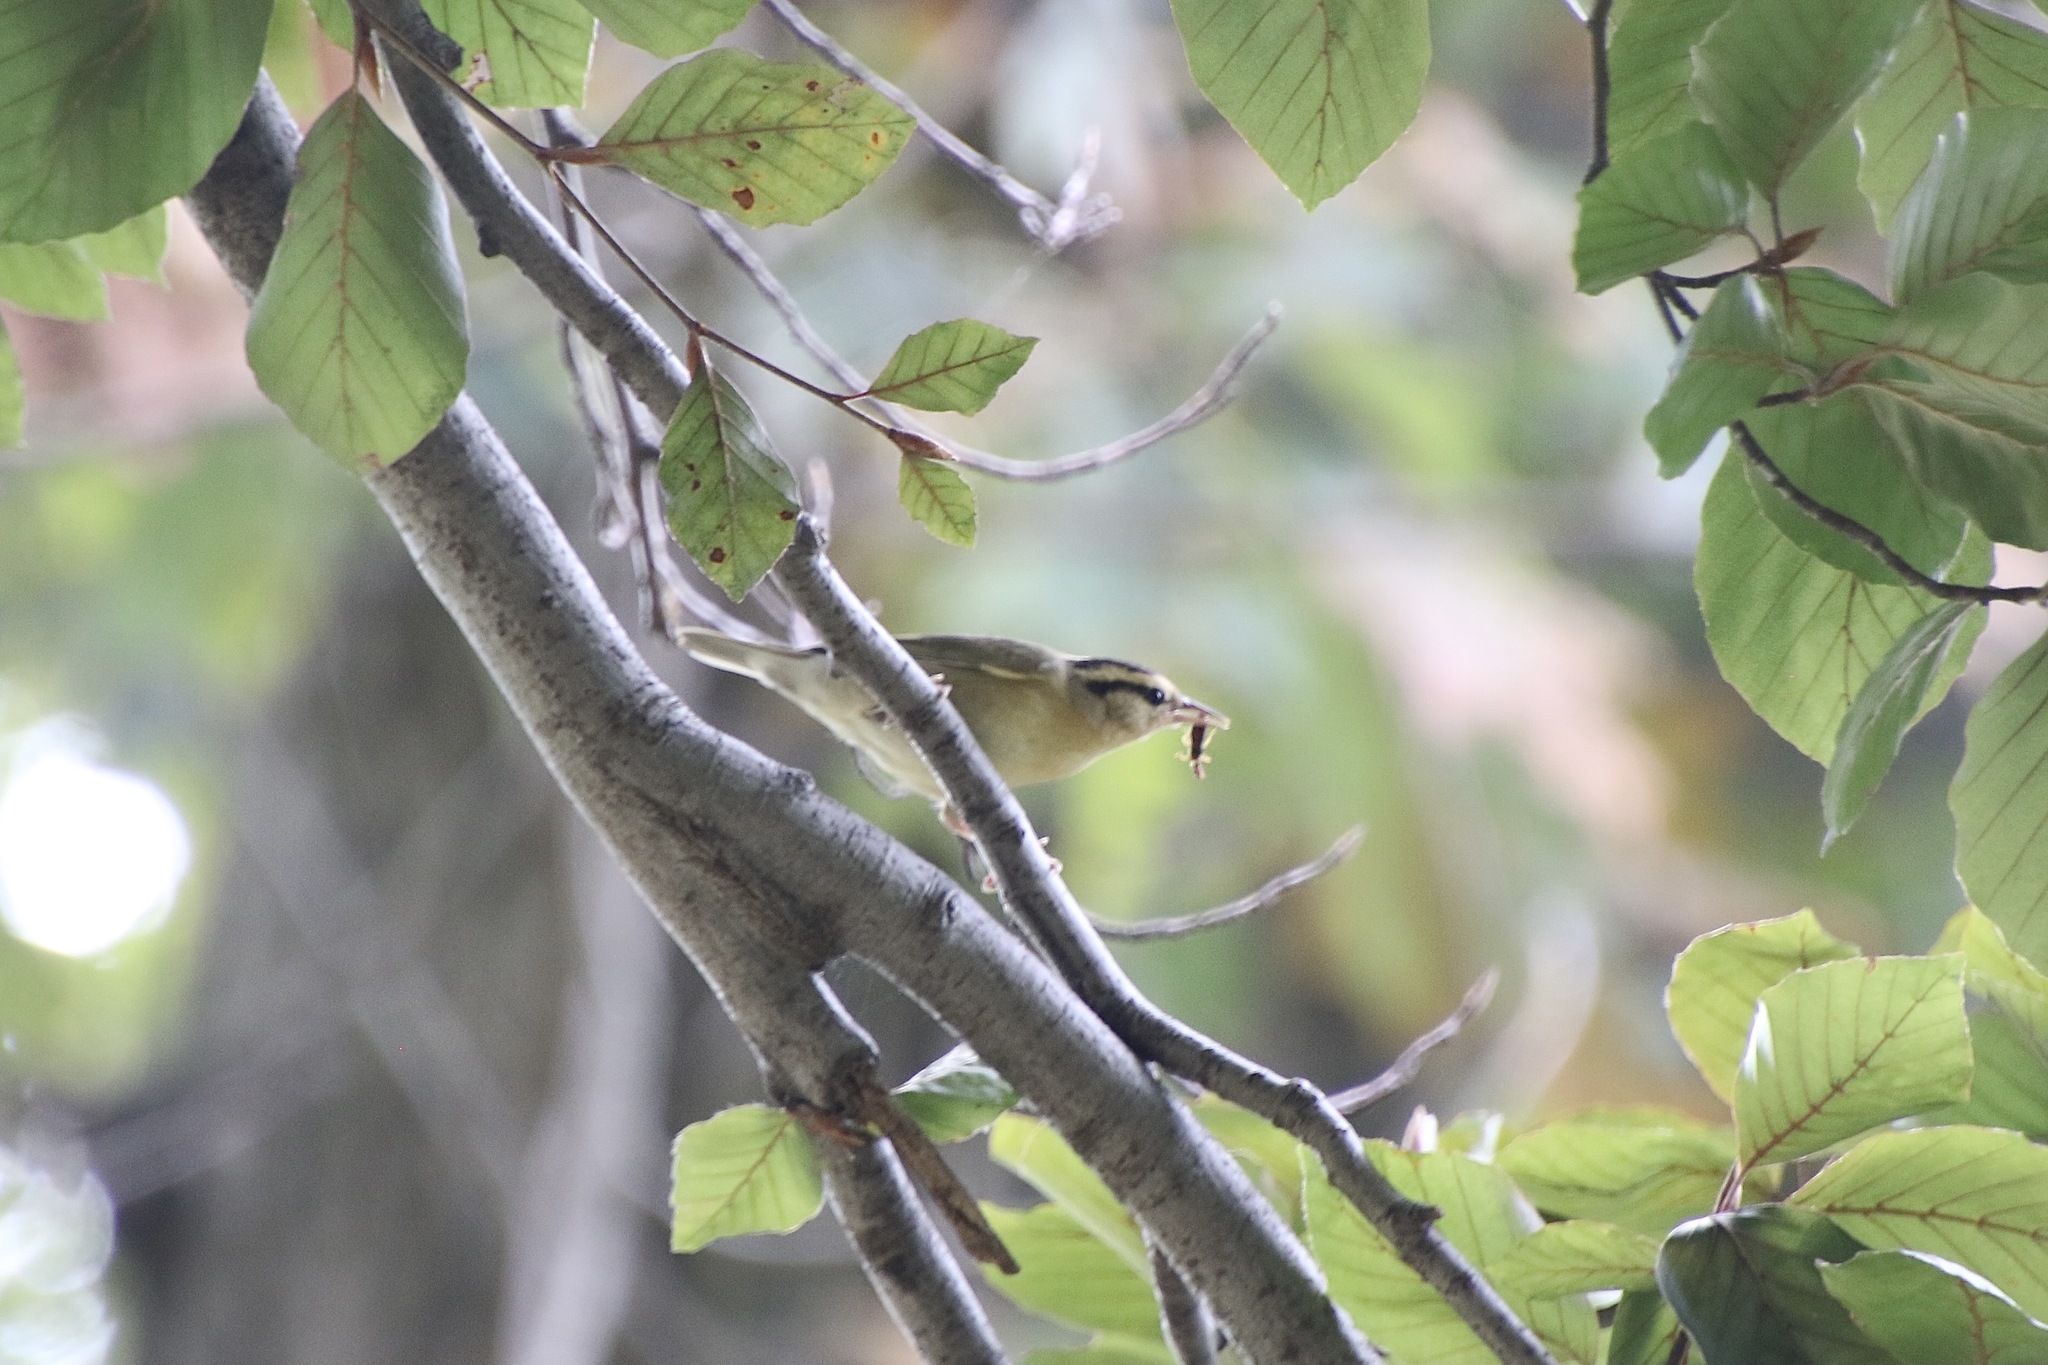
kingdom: Animalia
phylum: Chordata
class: Aves
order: Passeriformes
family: Parulidae
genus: Helmitheros
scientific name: Helmitheros vermivorum
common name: Worm-eating warbler
